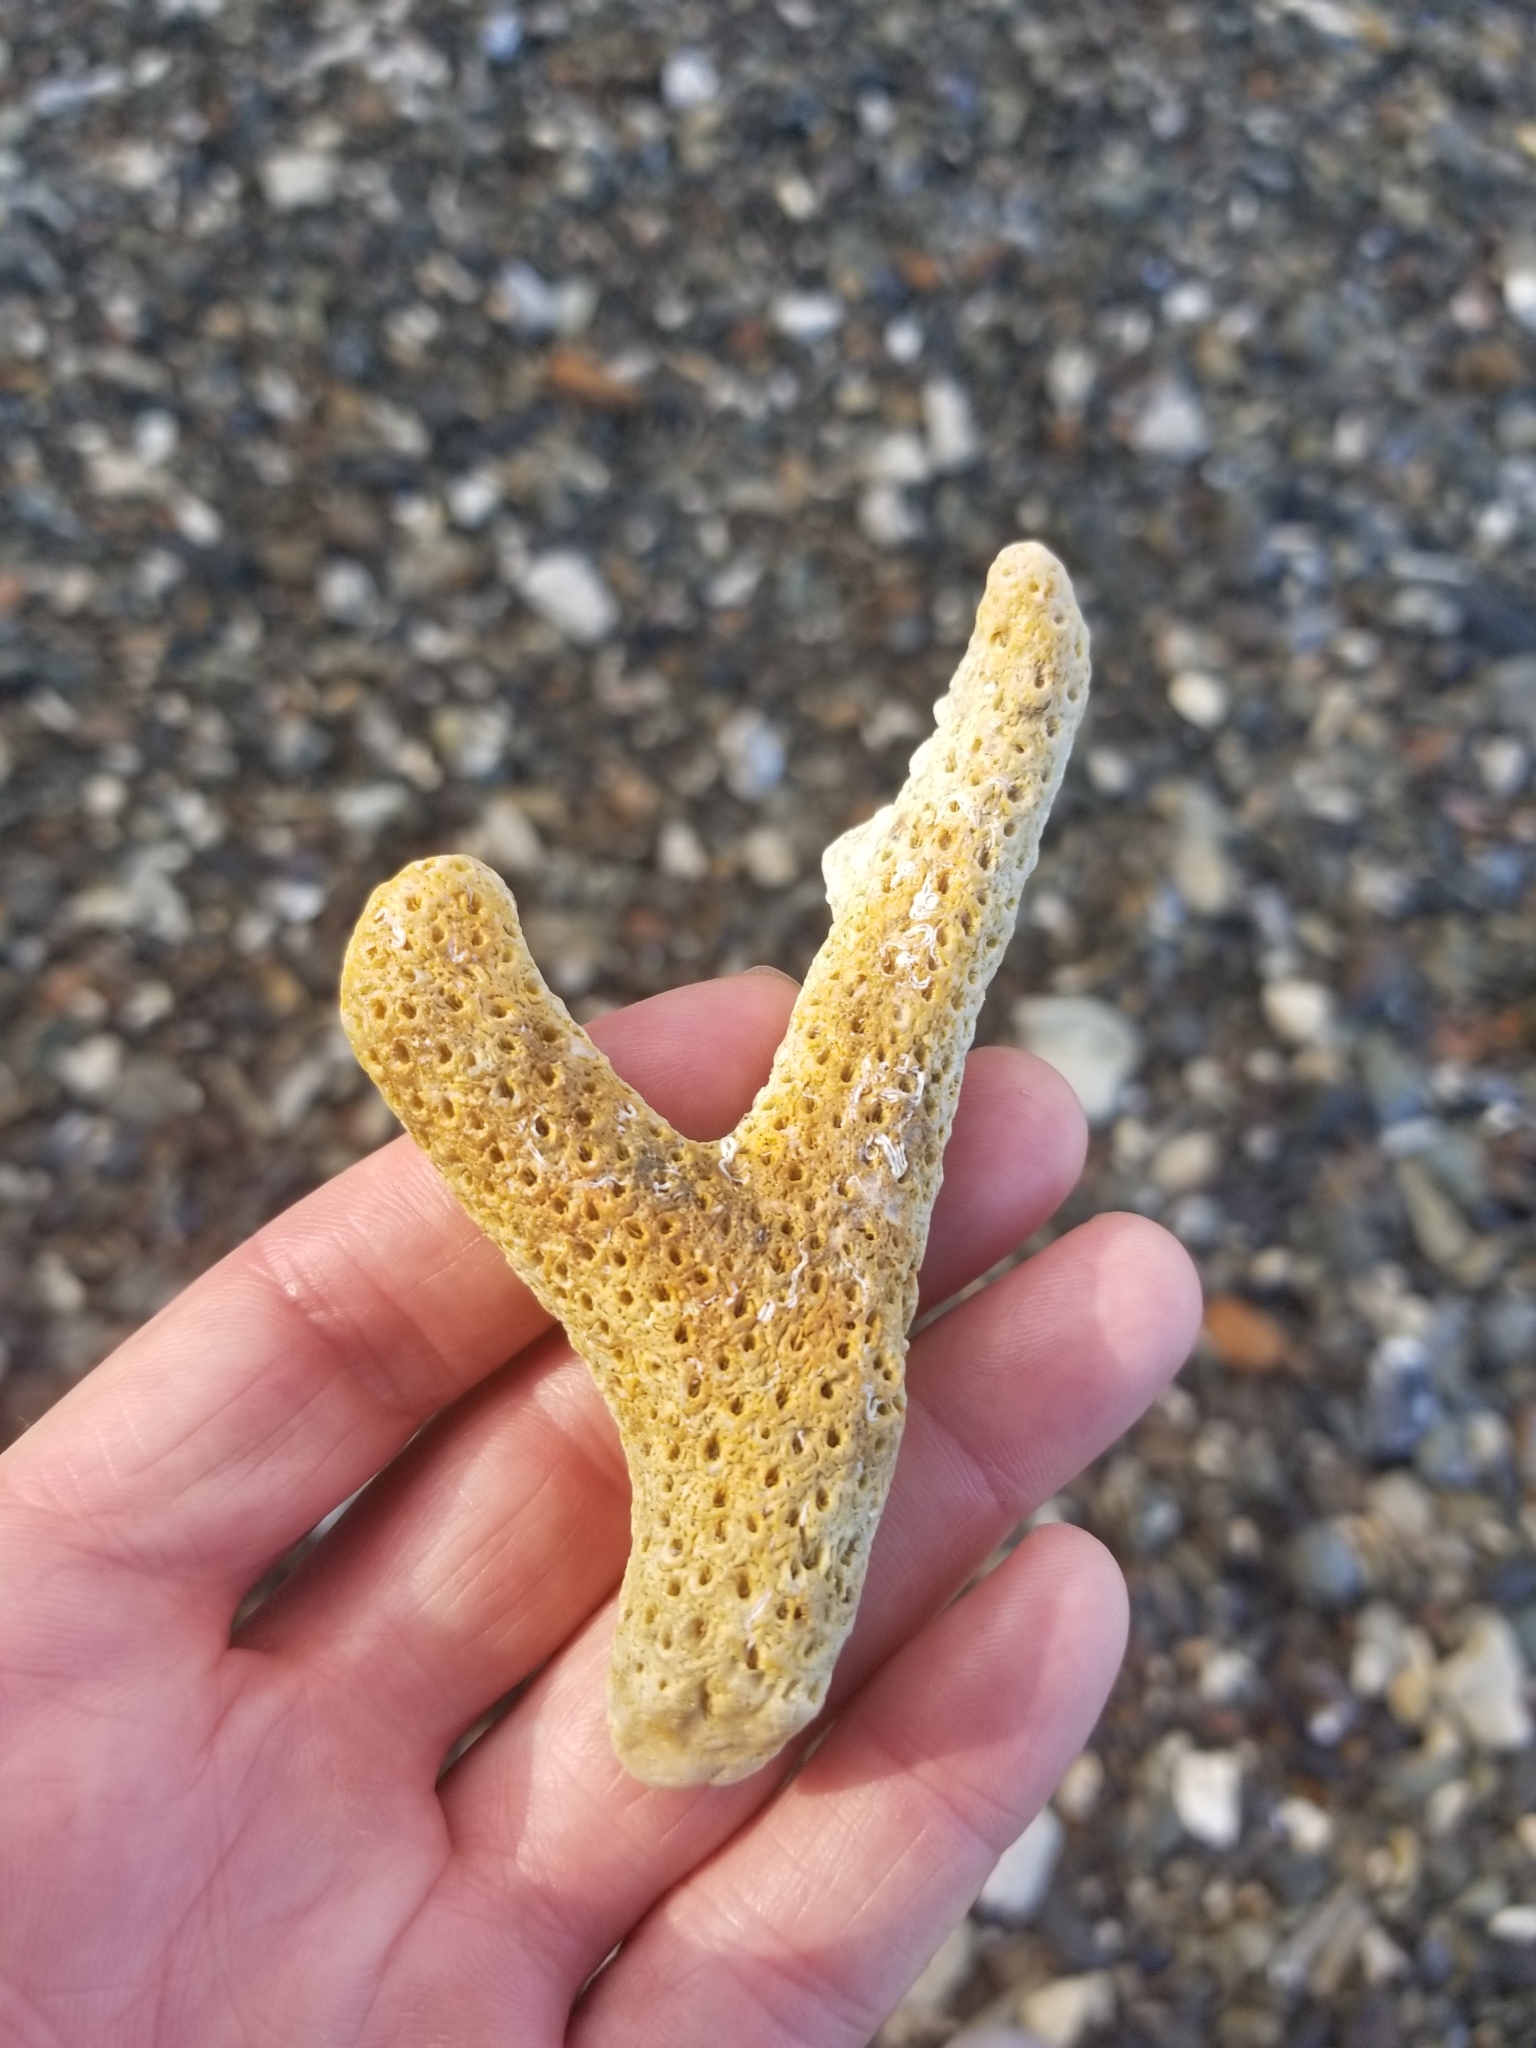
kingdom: Animalia
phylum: Cnidaria
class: Anthozoa
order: Scleractinia
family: Acroporidae
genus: Acropora
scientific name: Acropora cervicornis
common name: Staghorn coral
